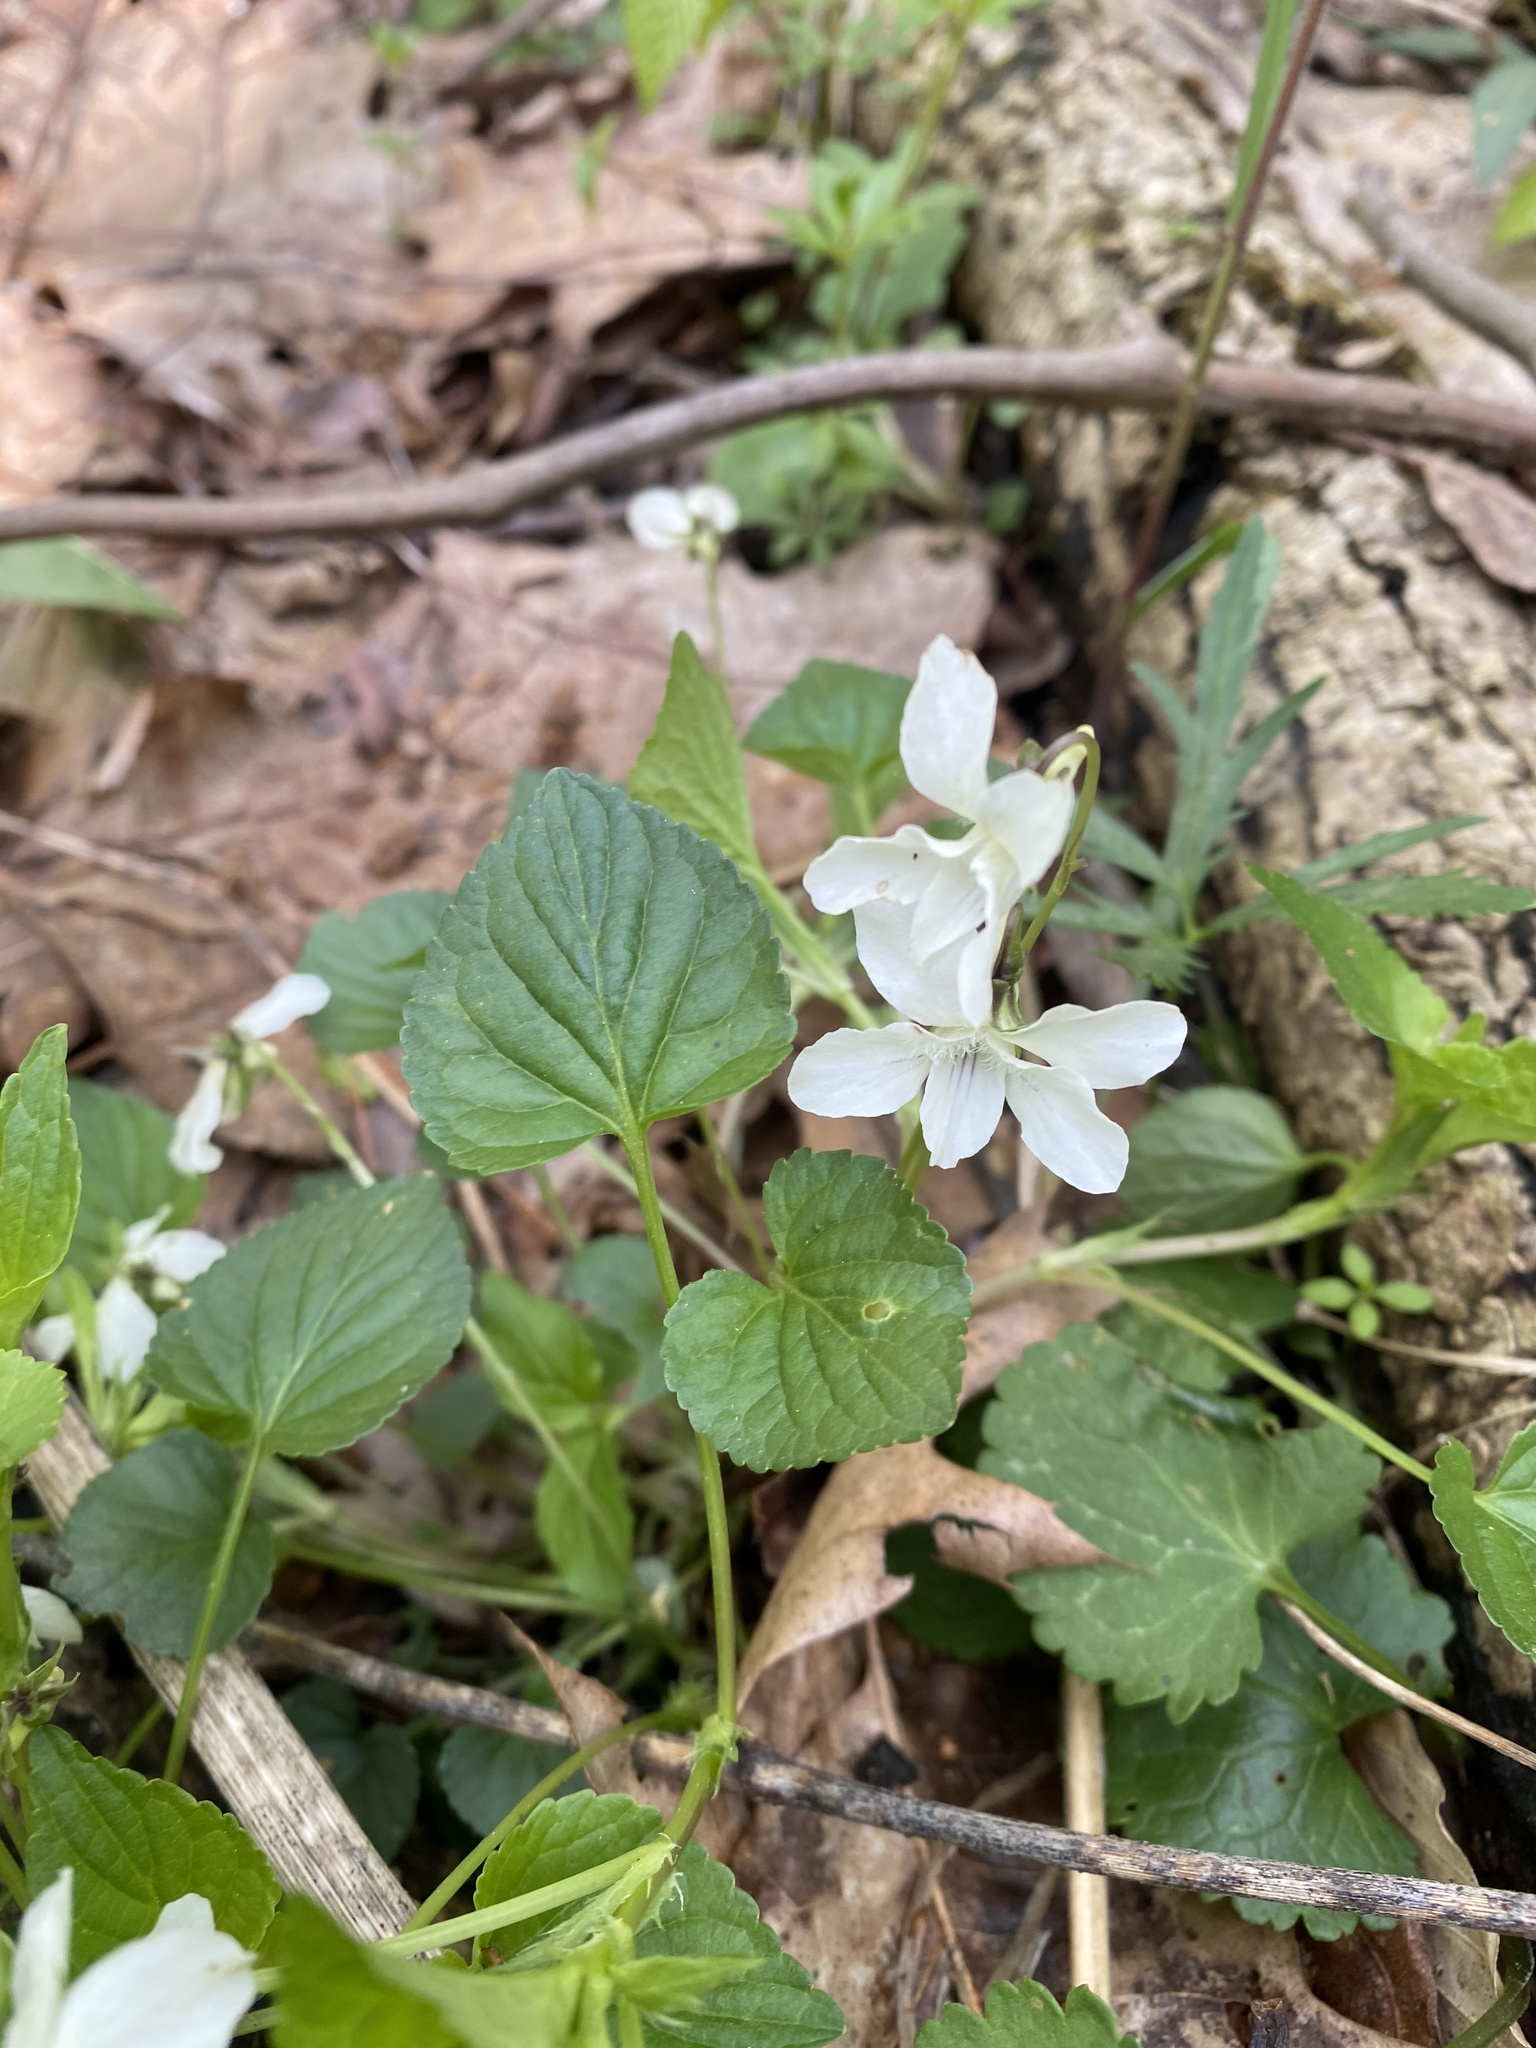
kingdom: Plantae
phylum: Tracheophyta
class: Magnoliopsida
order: Malpighiales
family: Violaceae
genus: Viola
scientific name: Viola striata
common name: Cream violet
